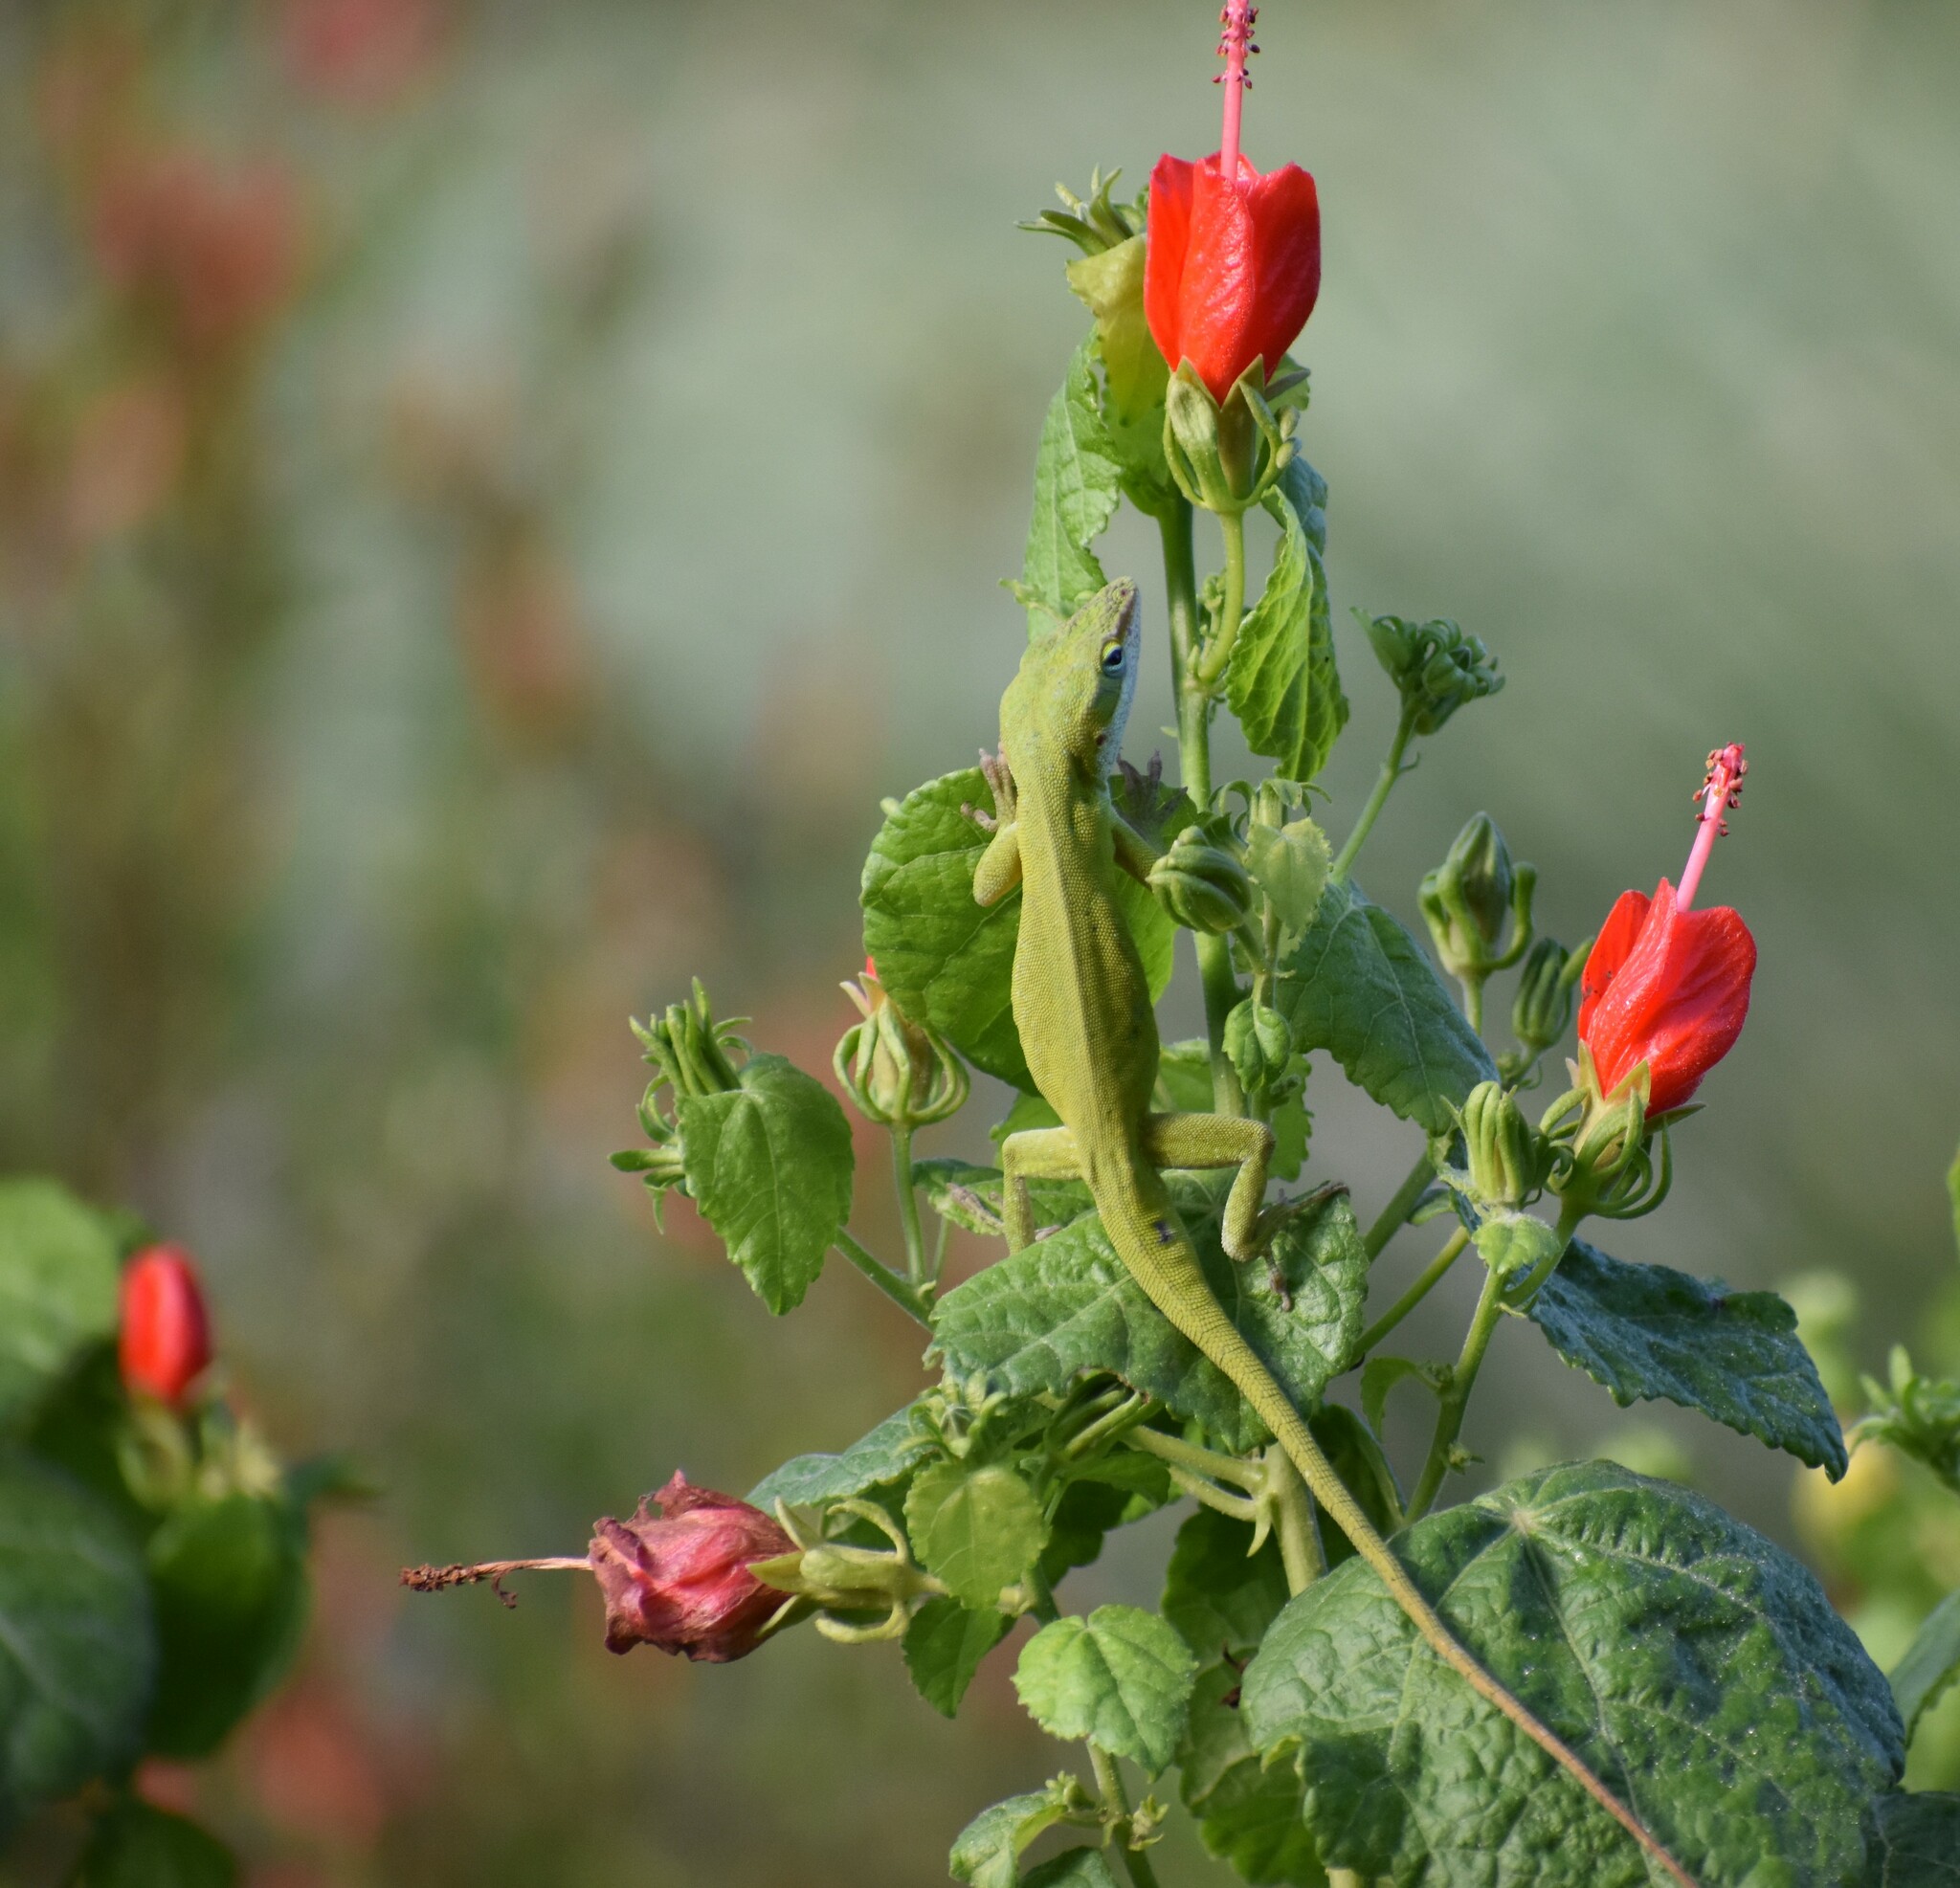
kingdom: Animalia
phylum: Chordata
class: Squamata
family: Dactyloidae
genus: Anolis
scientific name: Anolis carolinensis
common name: Green anole
